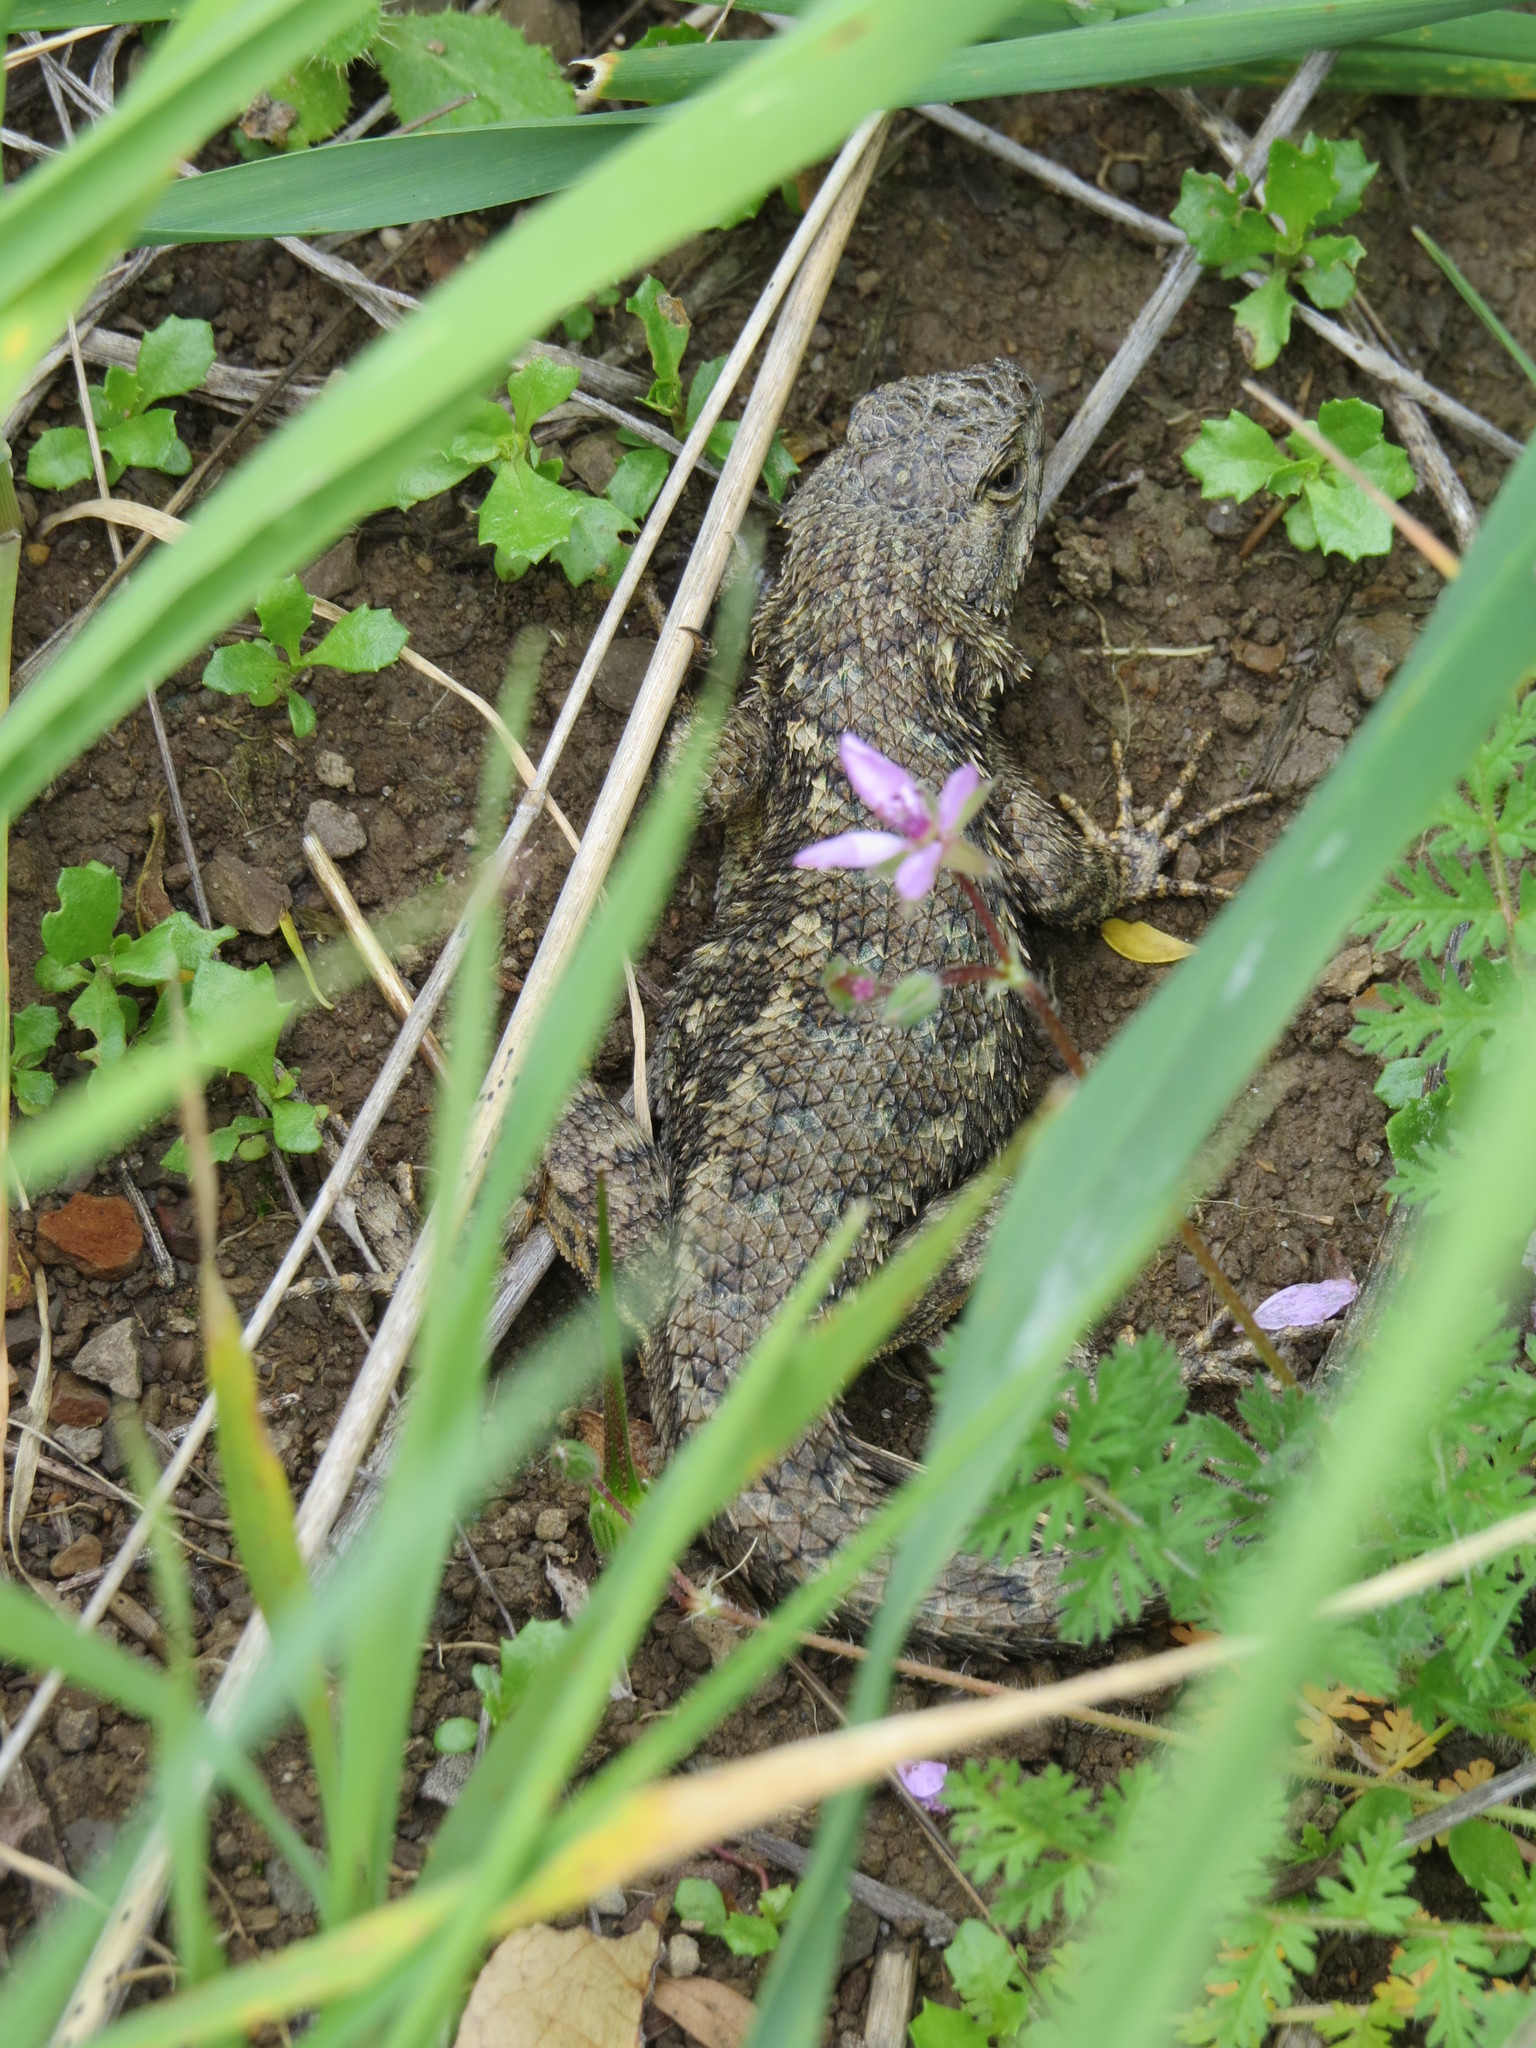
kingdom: Animalia
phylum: Chordata
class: Squamata
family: Phrynosomatidae
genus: Sceloporus
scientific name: Sceloporus occidentalis
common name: Western fence lizard
